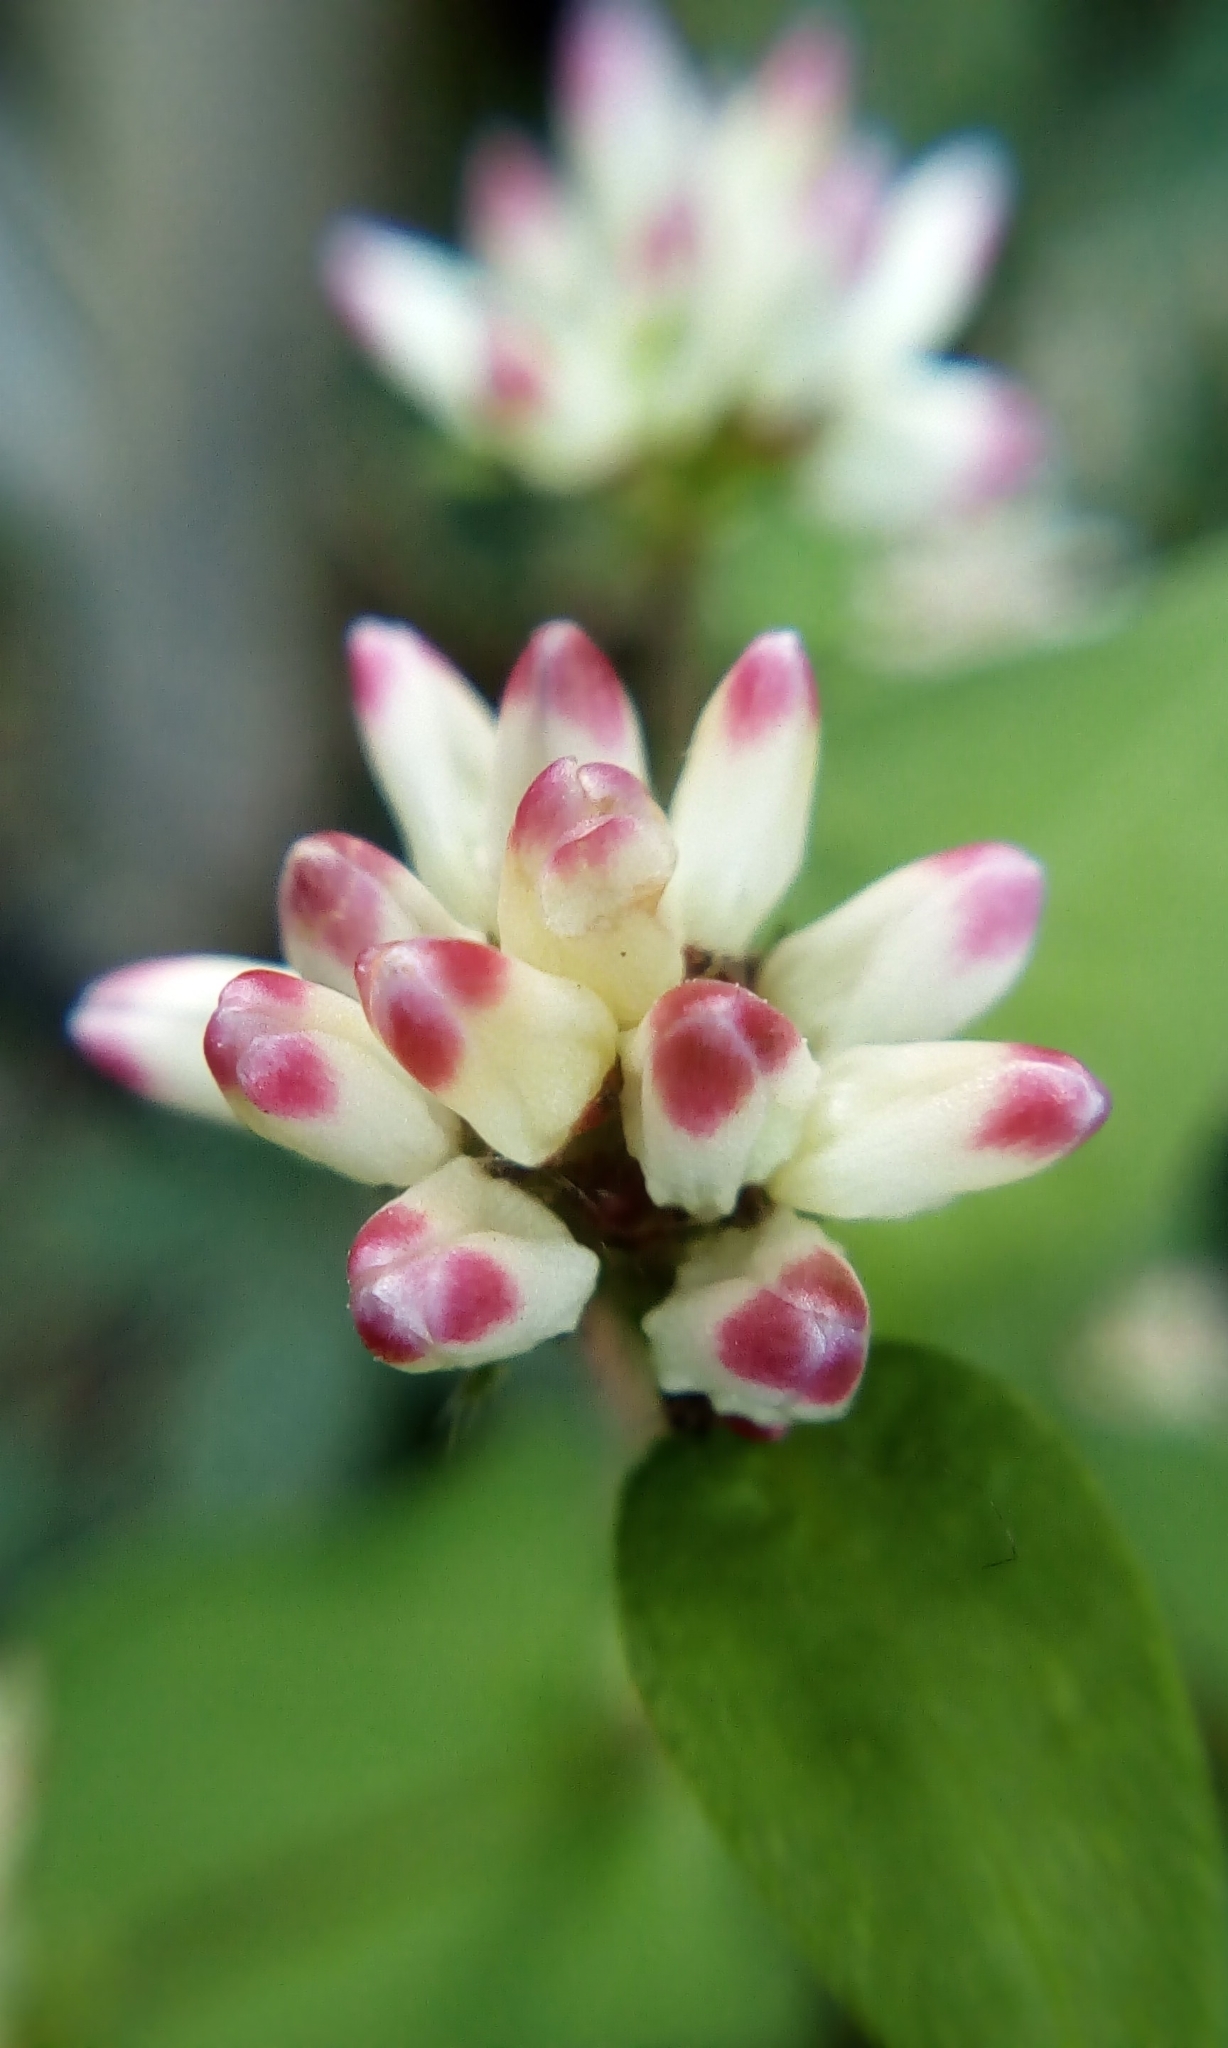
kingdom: Plantae
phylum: Tracheophyta
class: Magnoliopsida
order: Caryophyllales
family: Polygonaceae
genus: Persicaria
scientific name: Persicaria thunbergii
